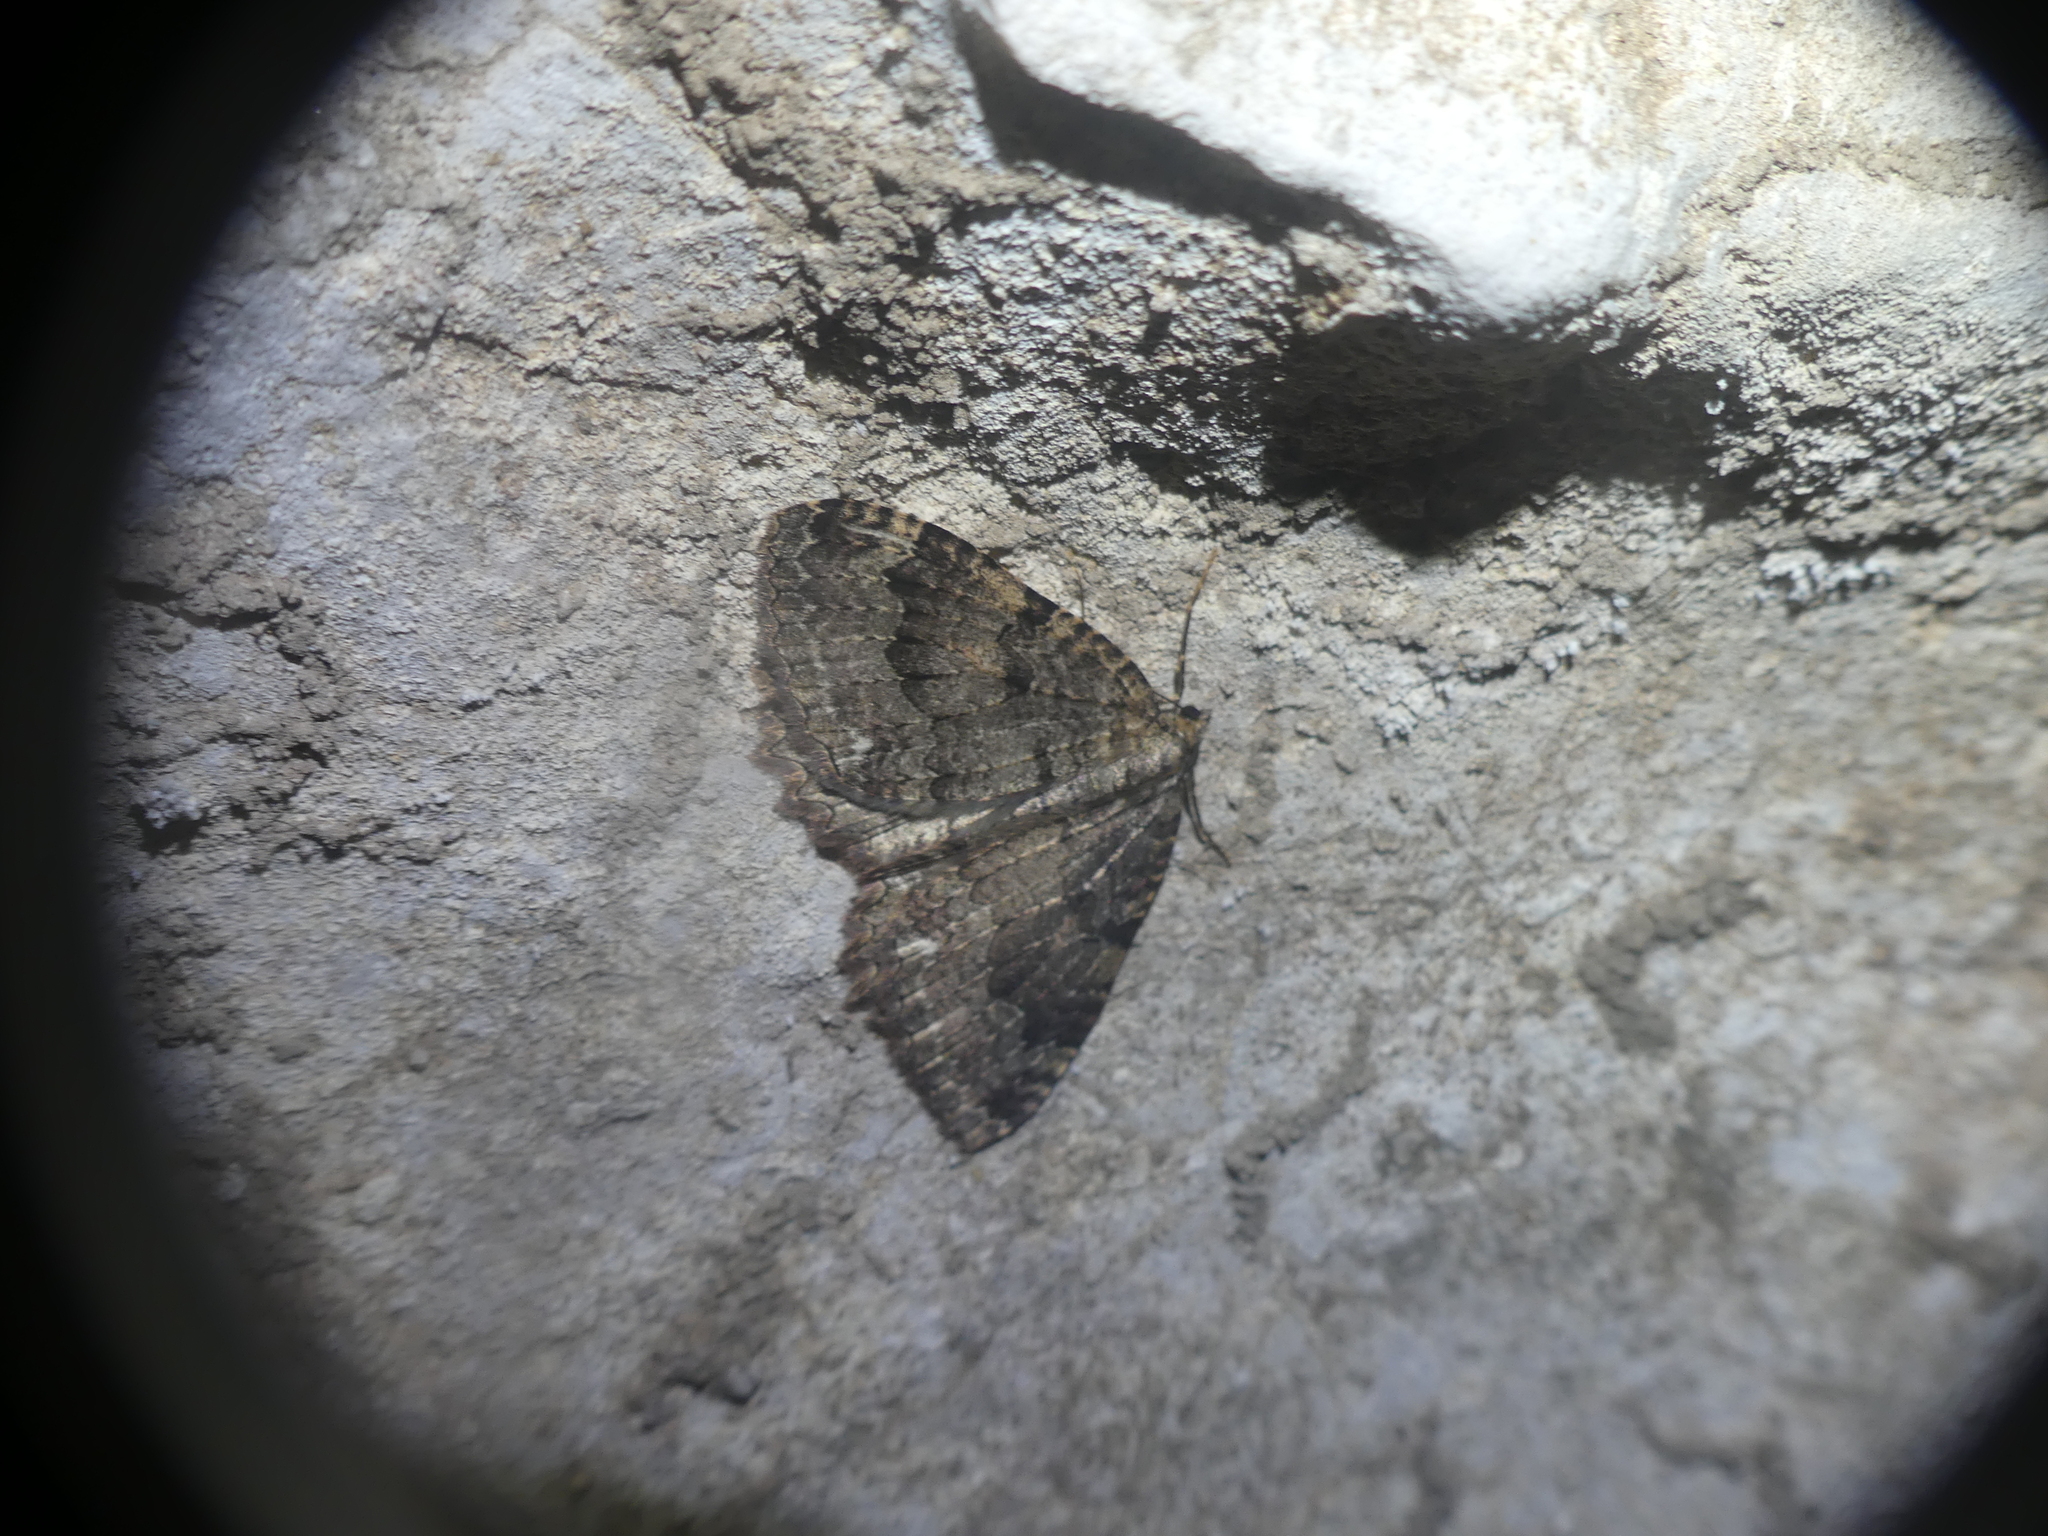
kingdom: Animalia
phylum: Arthropoda
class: Insecta
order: Lepidoptera
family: Geometridae
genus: Triphosa
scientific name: Triphosa dubitata
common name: Tissue
